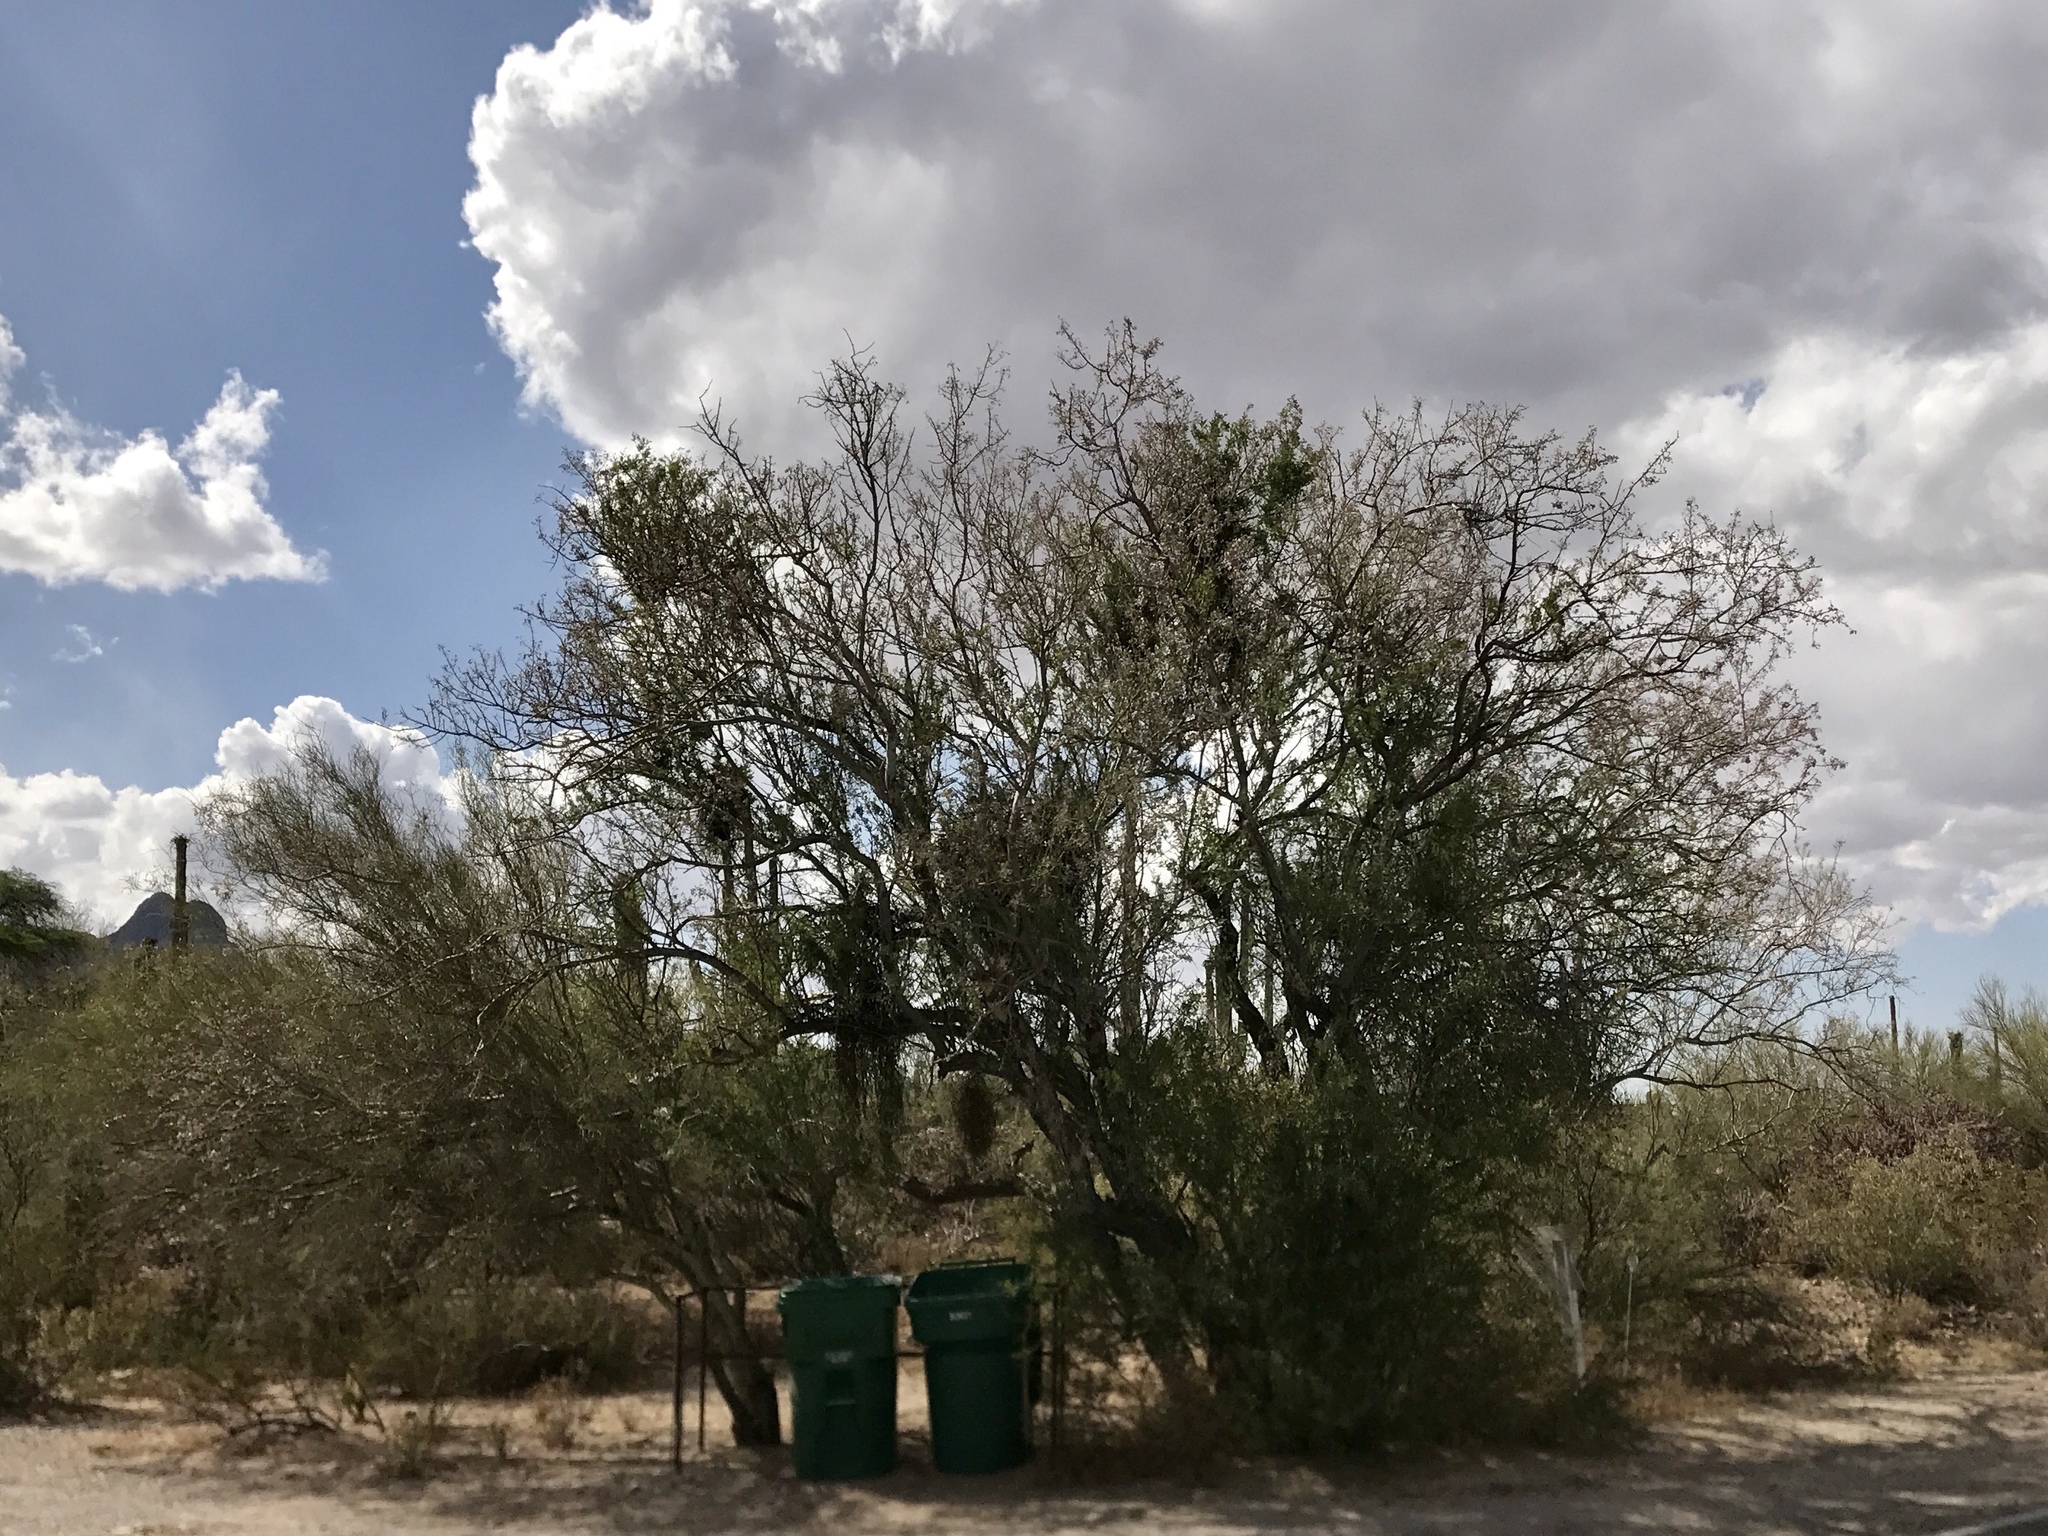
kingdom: Plantae
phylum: Tracheophyta
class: Magnoliopsida
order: Fabales
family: Fabaceae
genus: Olneya
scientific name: Olneya tesota
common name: Desert ironwood
